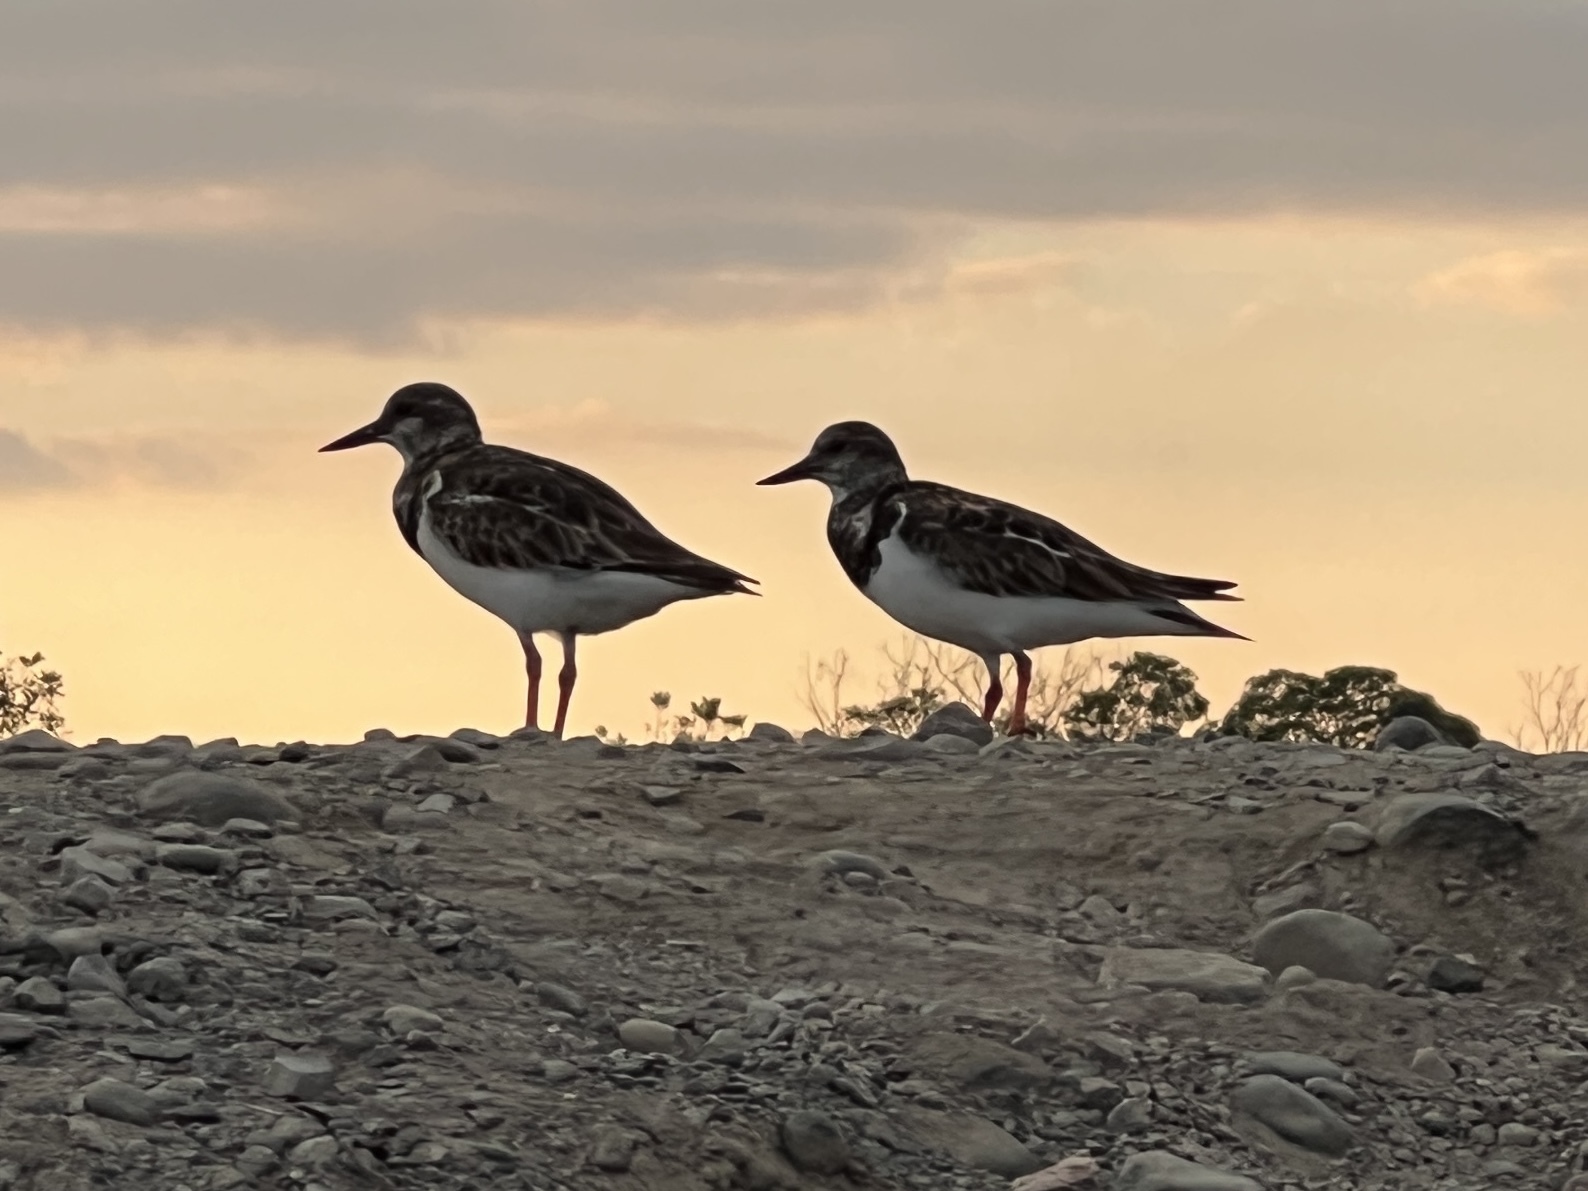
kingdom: Animalia
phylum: Chordata
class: Aves
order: Charadriiformes
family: Scolopacidae
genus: Arenaria
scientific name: Arenaria interpres
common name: Ruddy turnstone
